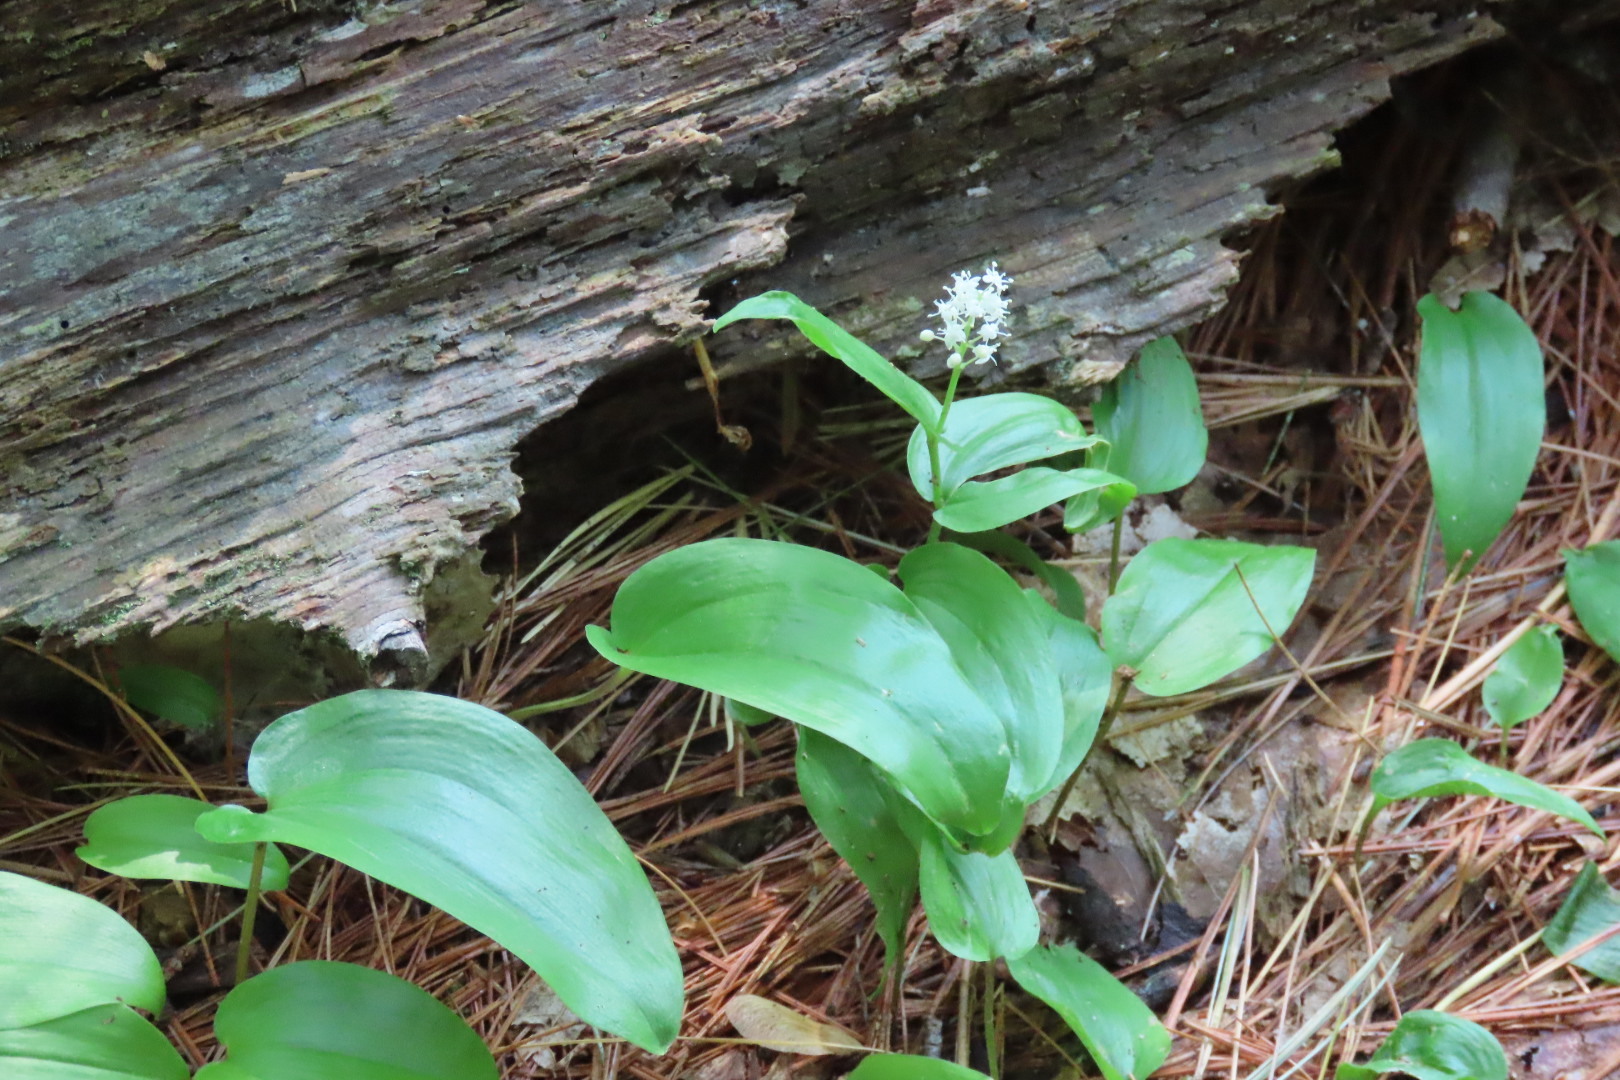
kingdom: Plantae
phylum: Tracheophyta
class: Liliopsida
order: Asparagales
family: Asparagaceae
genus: Maianthemum
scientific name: Maianthemum canadense
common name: False lily-of-the-valley
